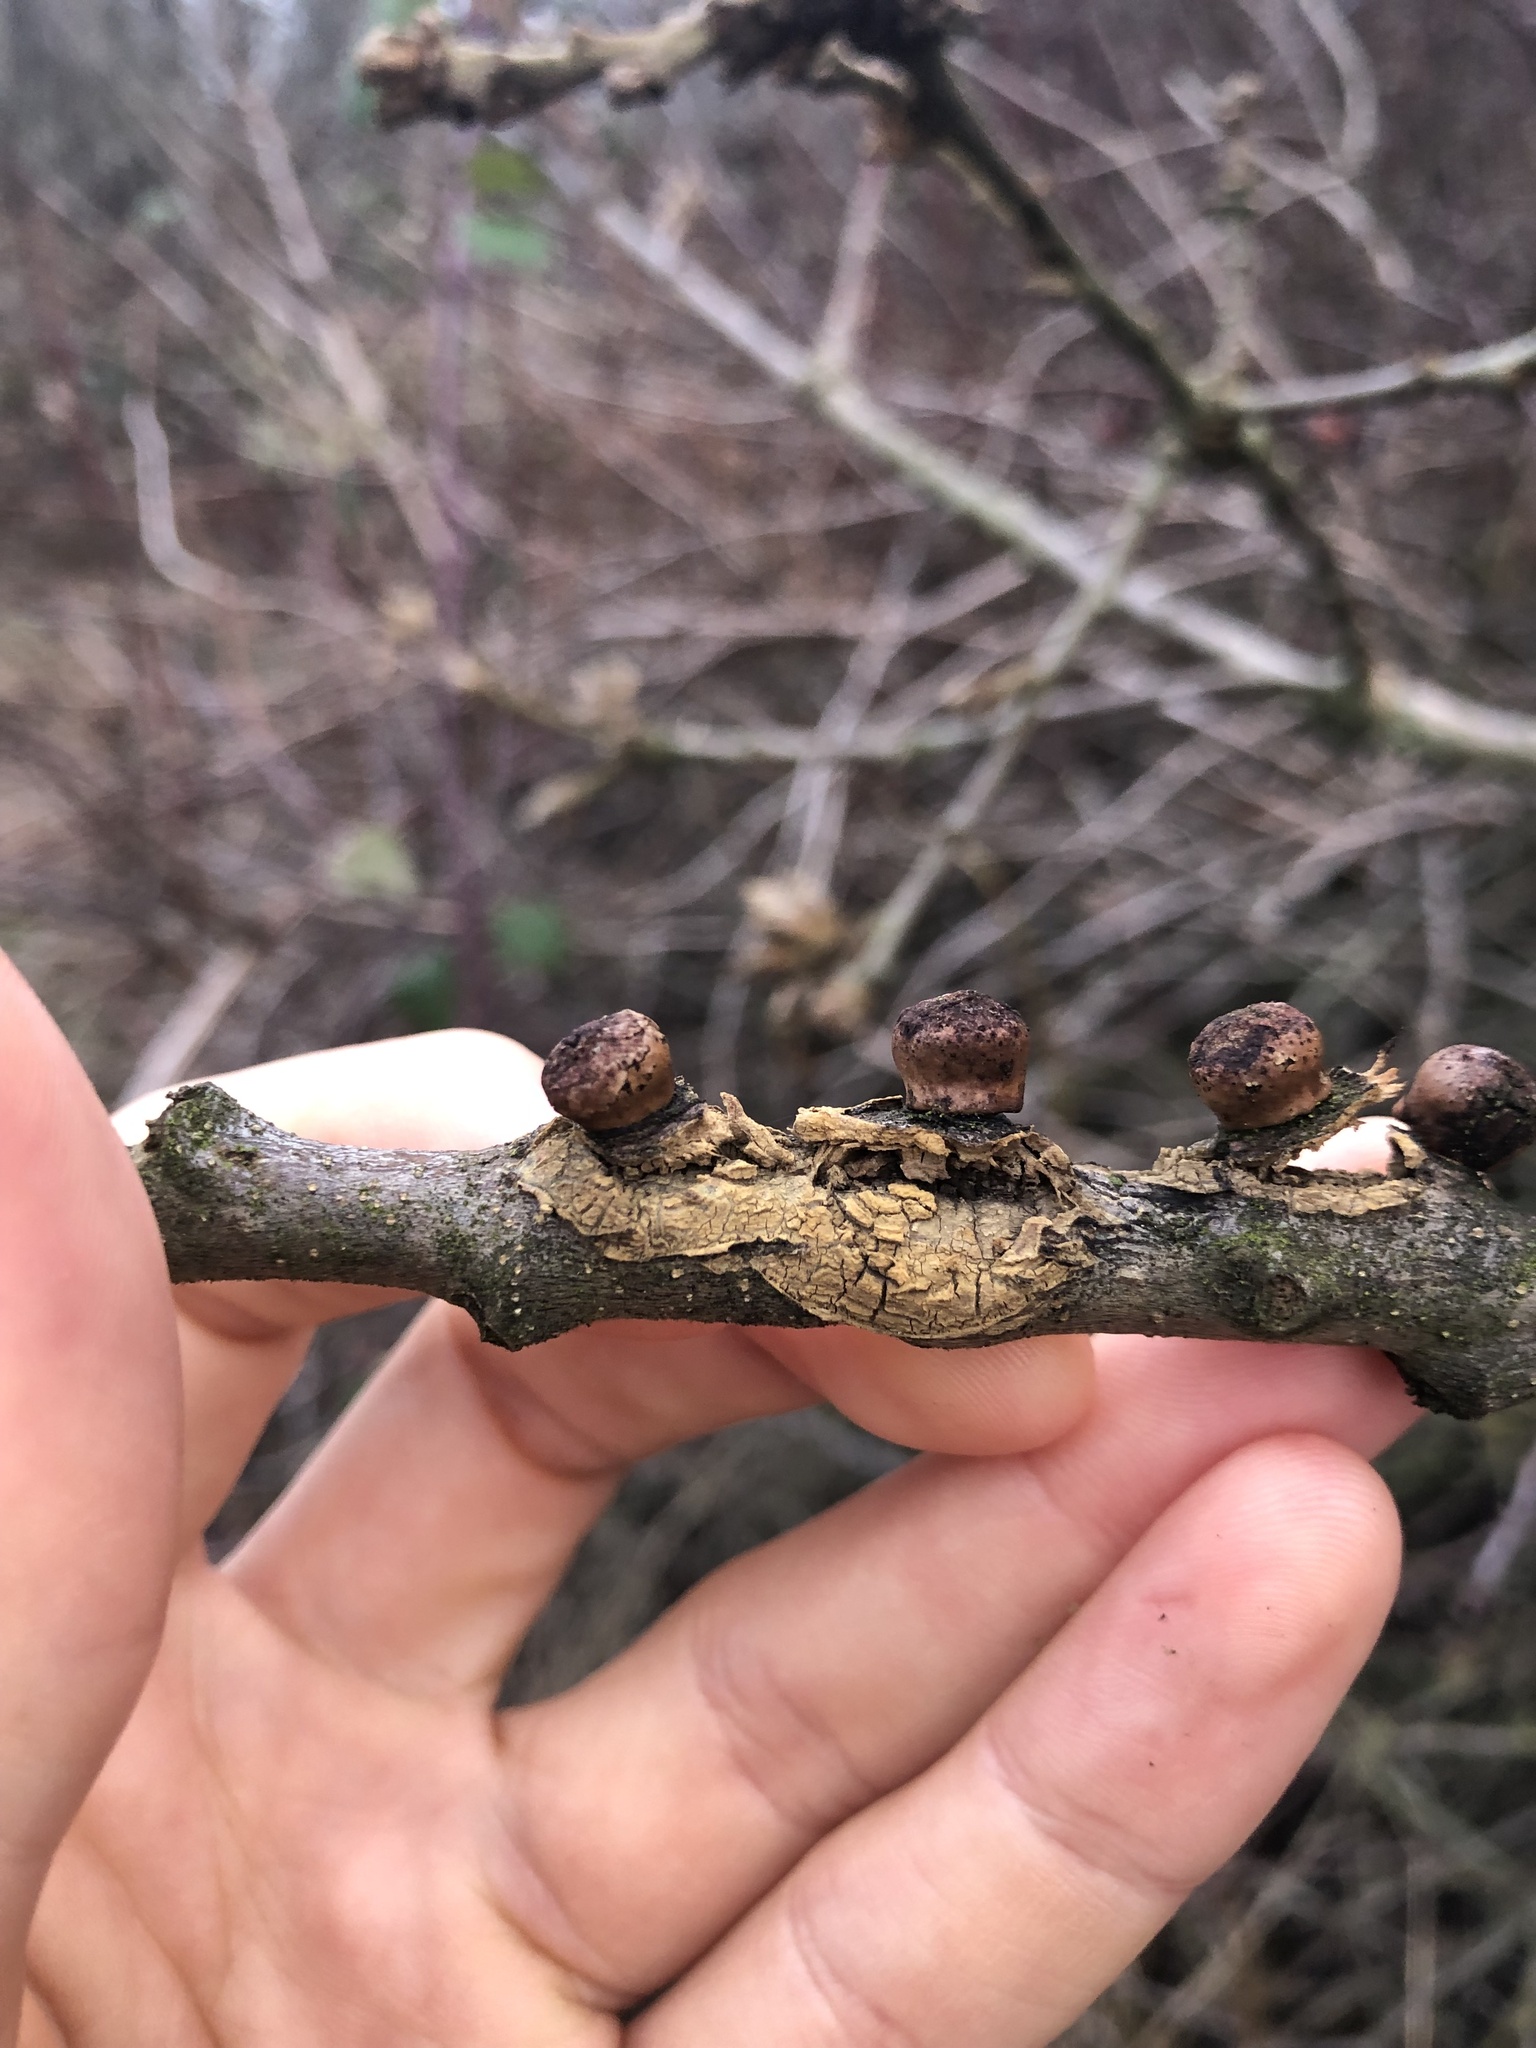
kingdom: Animalia
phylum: Arthropoda
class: Insecta
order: Hymenoptera
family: Cynipidae
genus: Disholcaspis
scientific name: Disholcaspis
